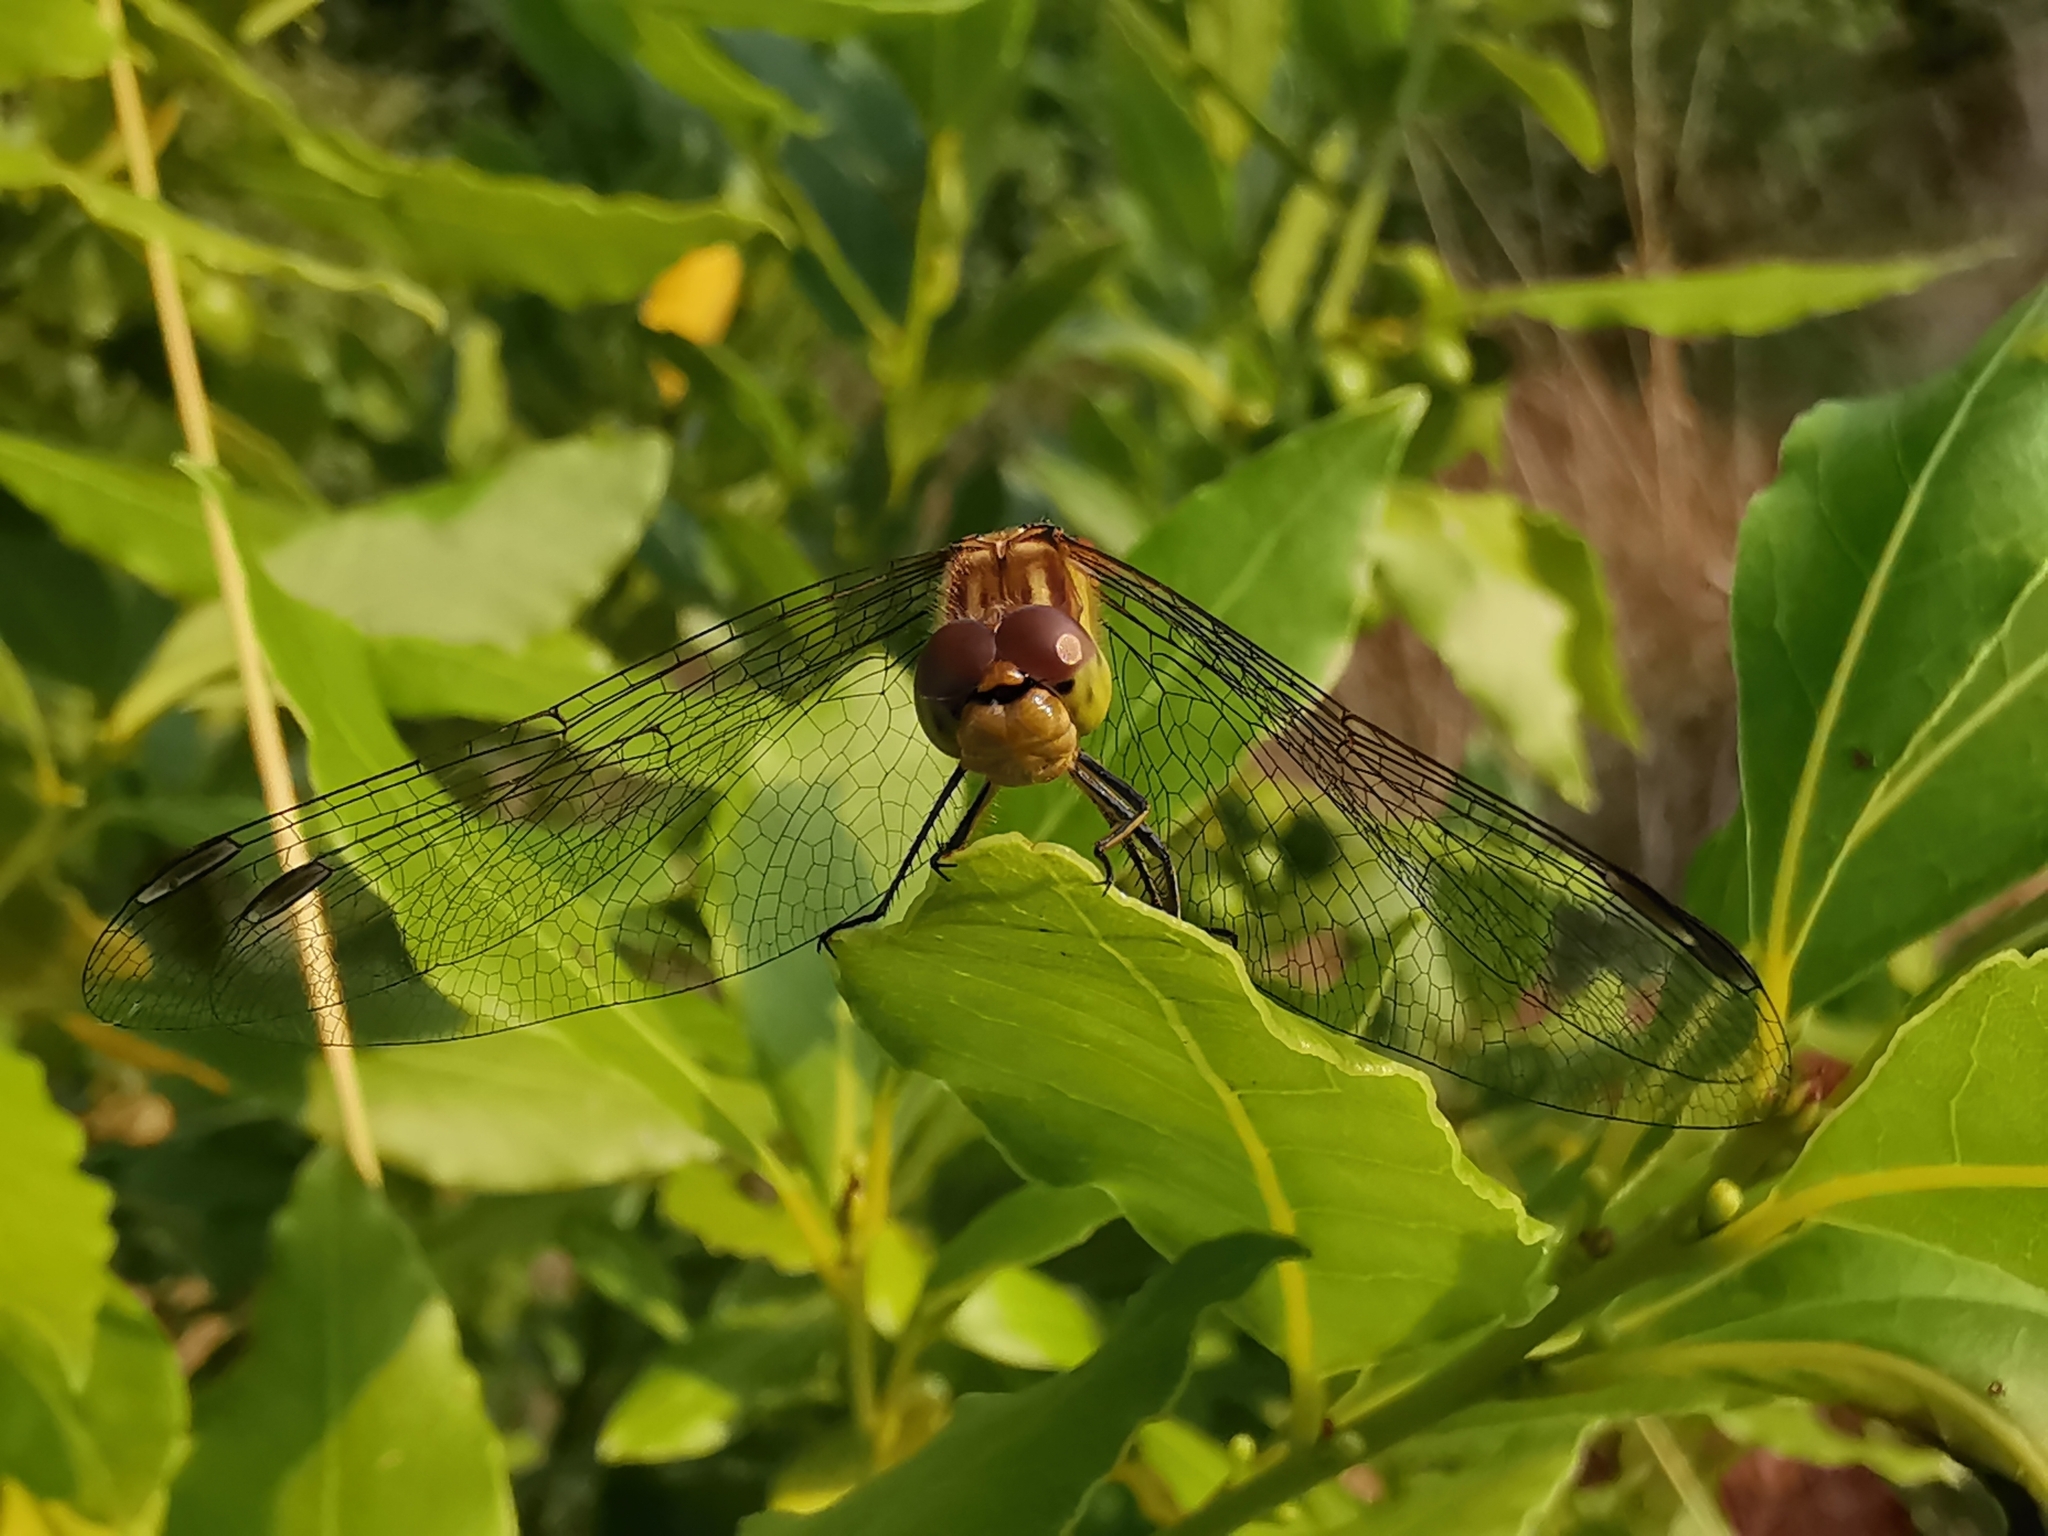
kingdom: Animalia
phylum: Arthropoda
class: Insecta
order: Odonata
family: Libellulidae
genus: Sympetrum
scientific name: Sympetrum striolatum
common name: Common darter
